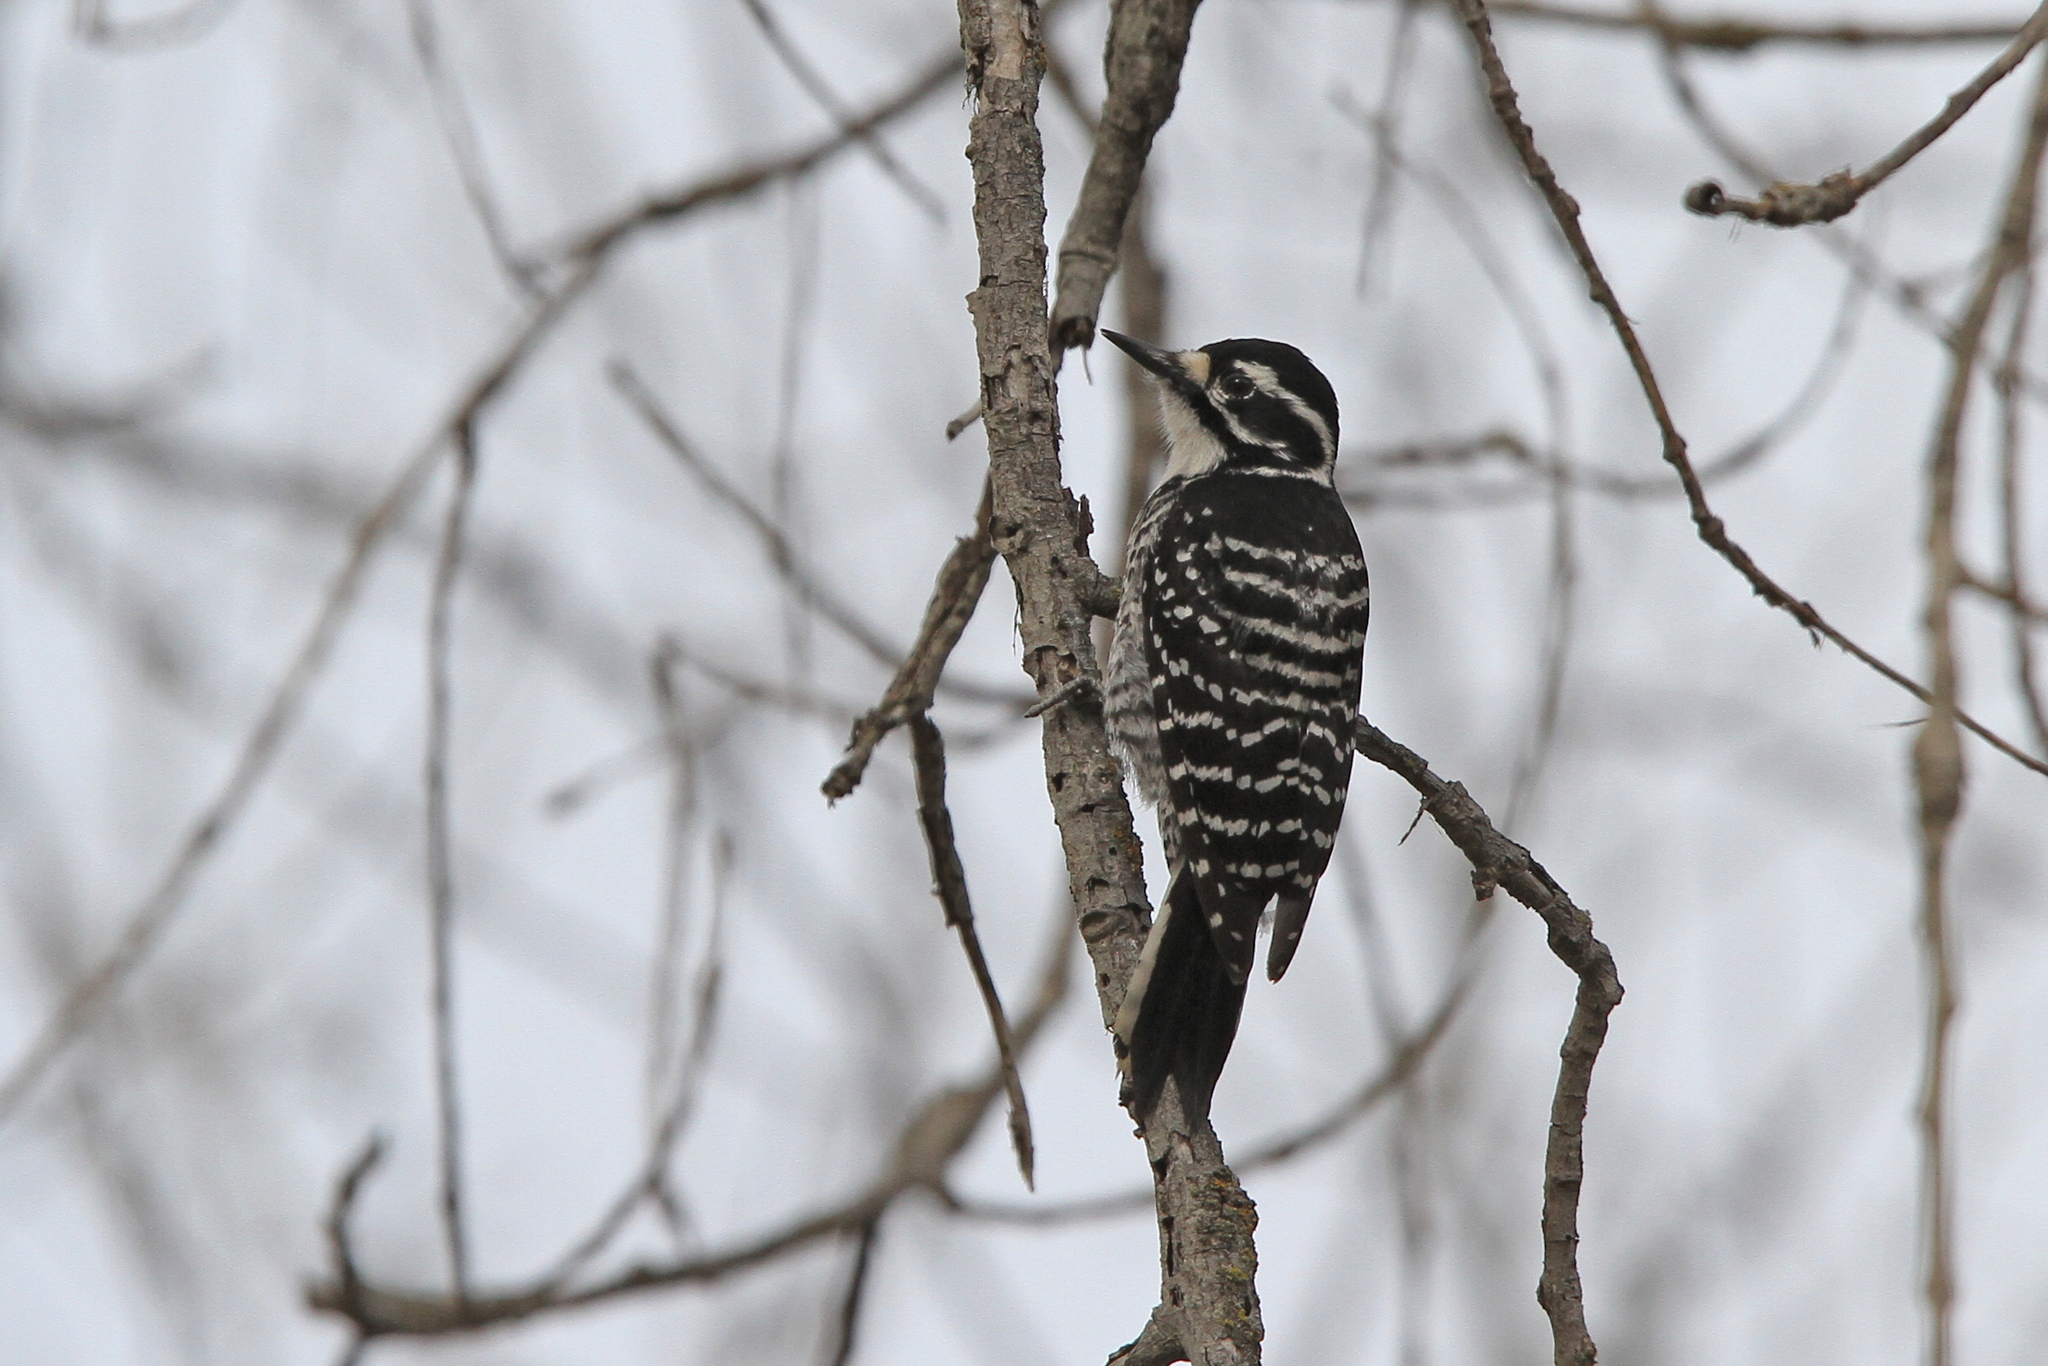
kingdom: Animalia
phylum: Chordata
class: Aves
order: Piciformes
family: Picidae
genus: Dryobates
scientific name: Dryobates nuttallii
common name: Nuttall's woodpecker
